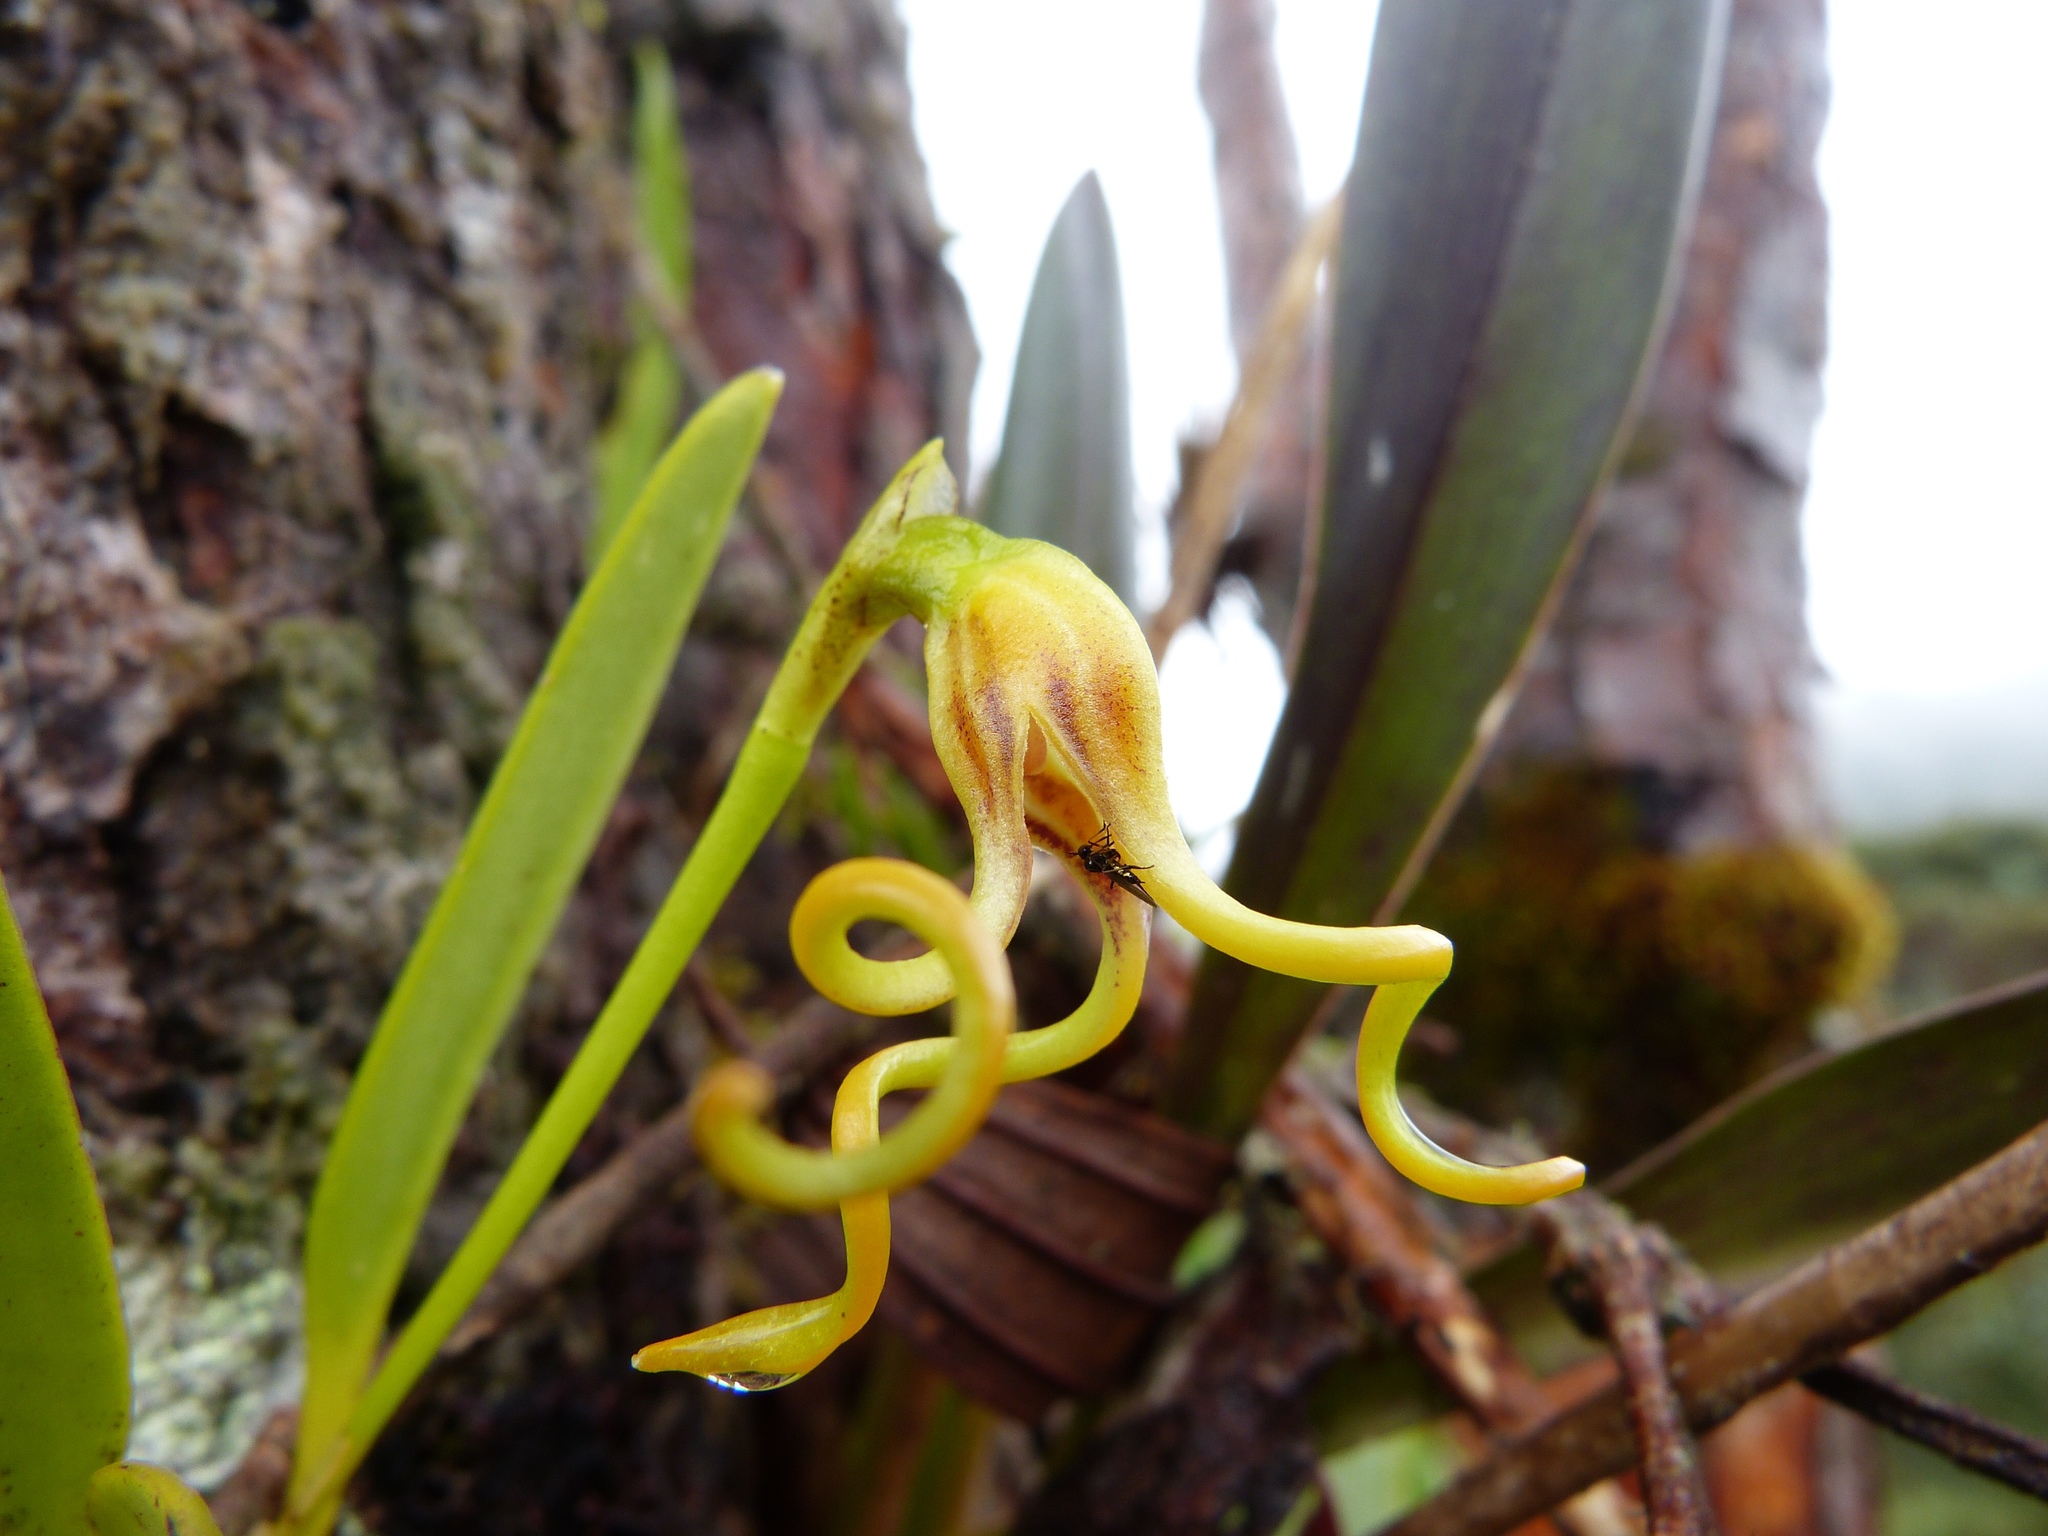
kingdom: Plantae
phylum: Tracheophyta
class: Liliopsida
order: Asparagales
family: Orchidaceae
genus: Masdevallia
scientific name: Masdevallia caudivolvula
